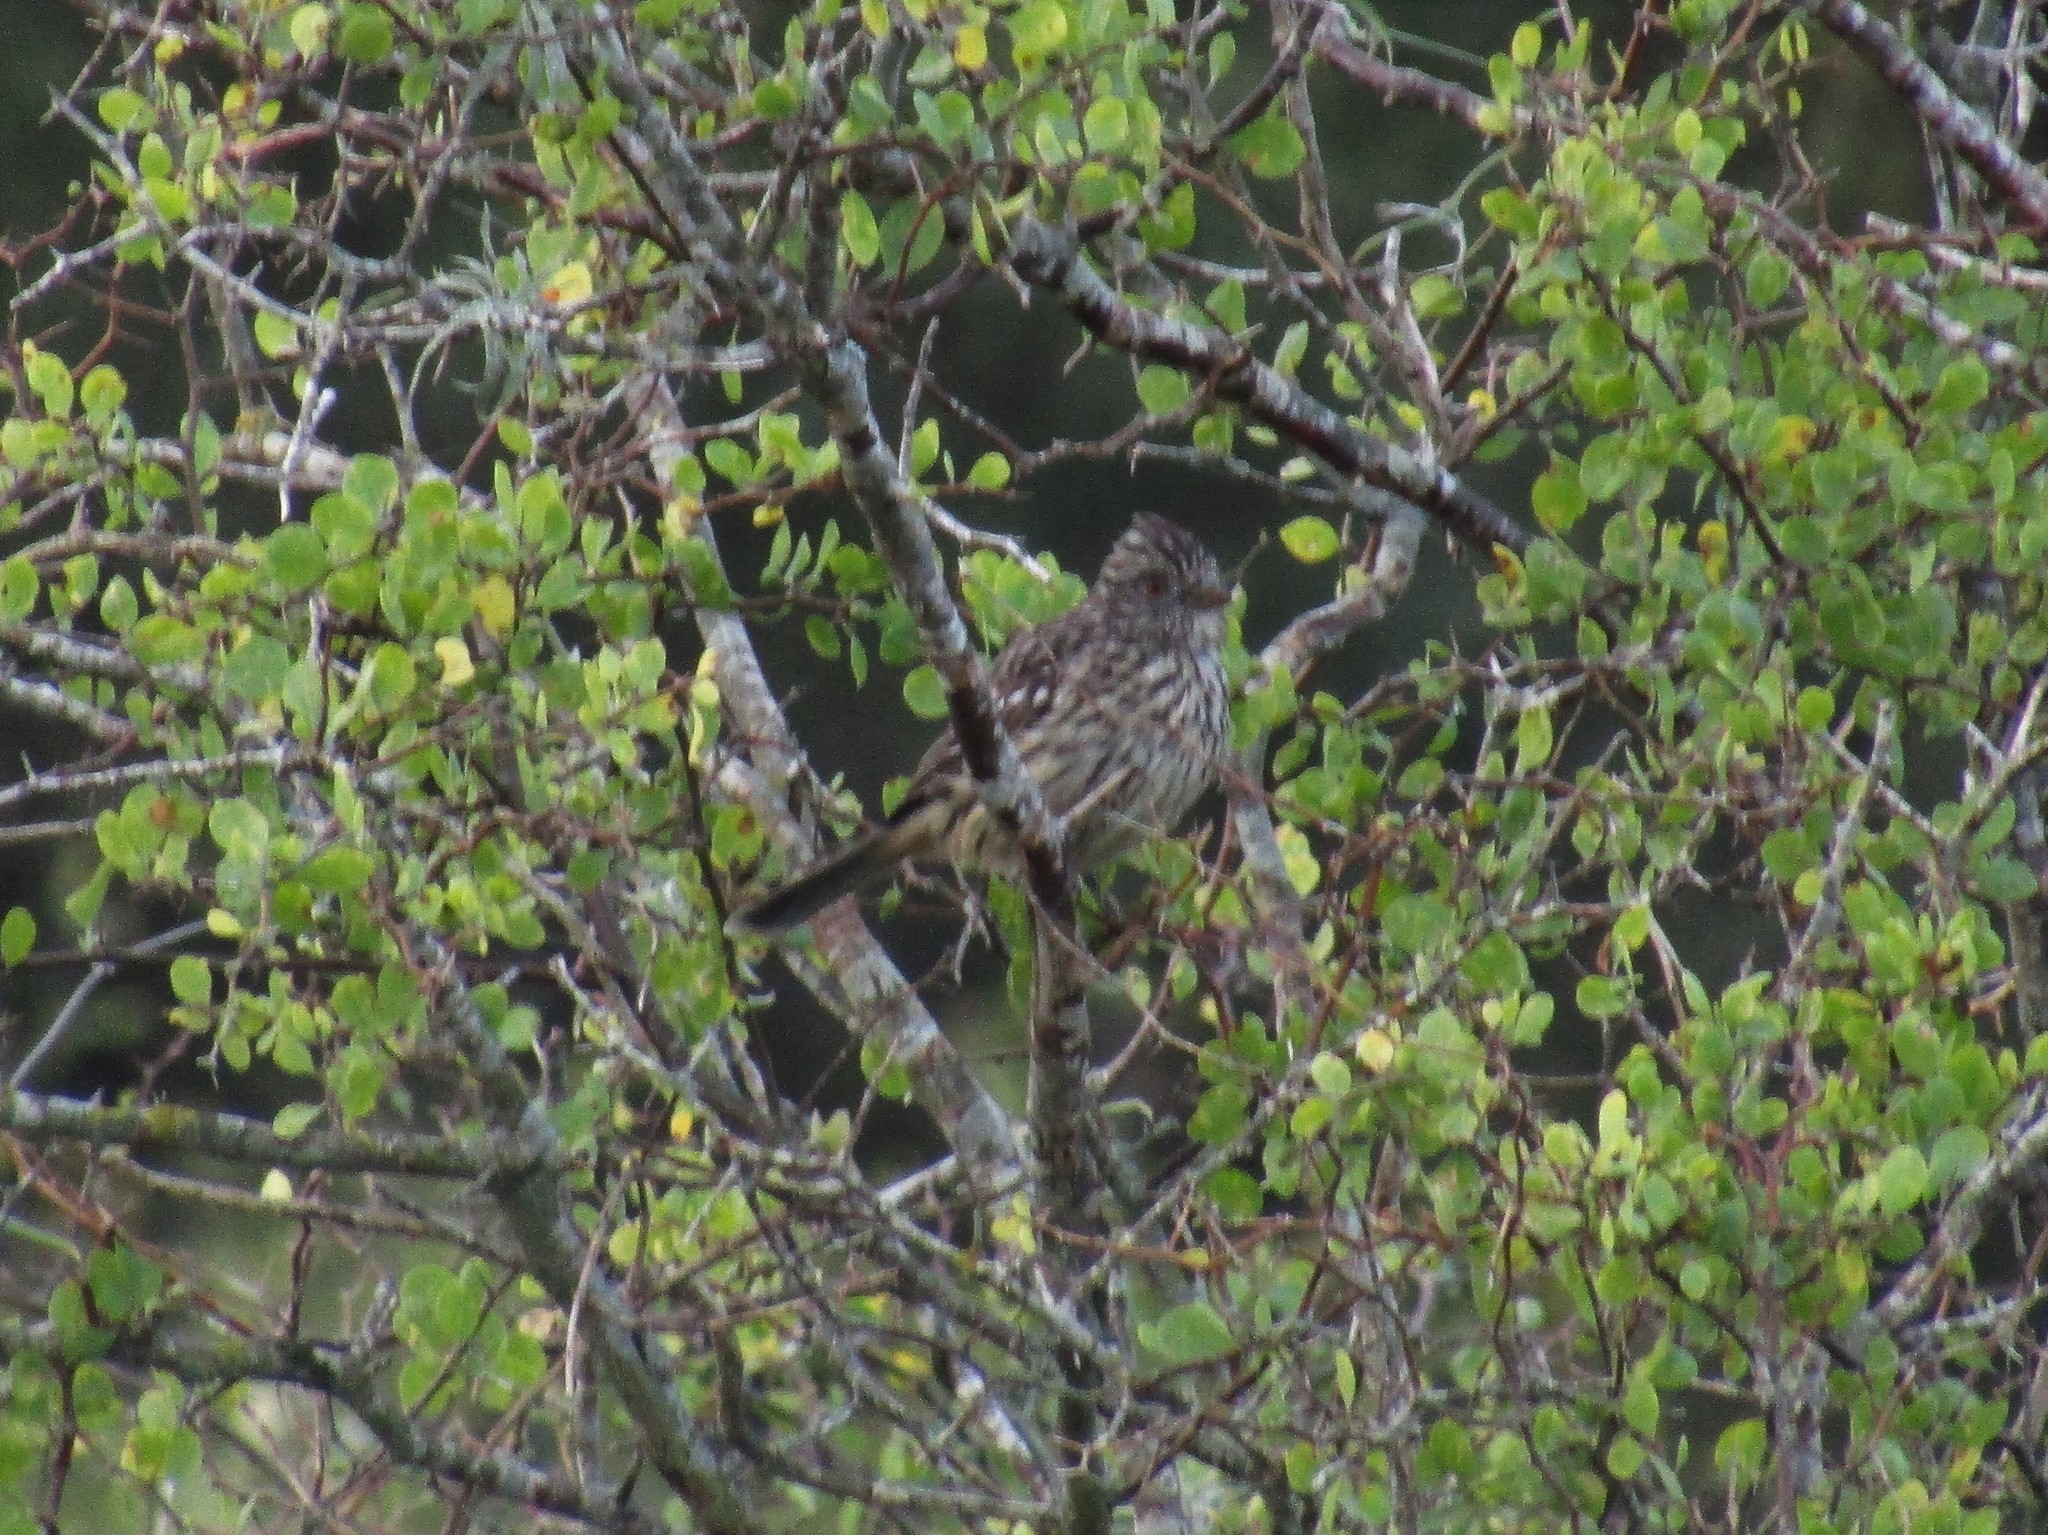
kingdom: Animalia
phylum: Chordata
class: Aves
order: Passeriformes
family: Cotingidae
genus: Phytotoma
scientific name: Phytotoma rutila
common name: White-tipped plantcutter
